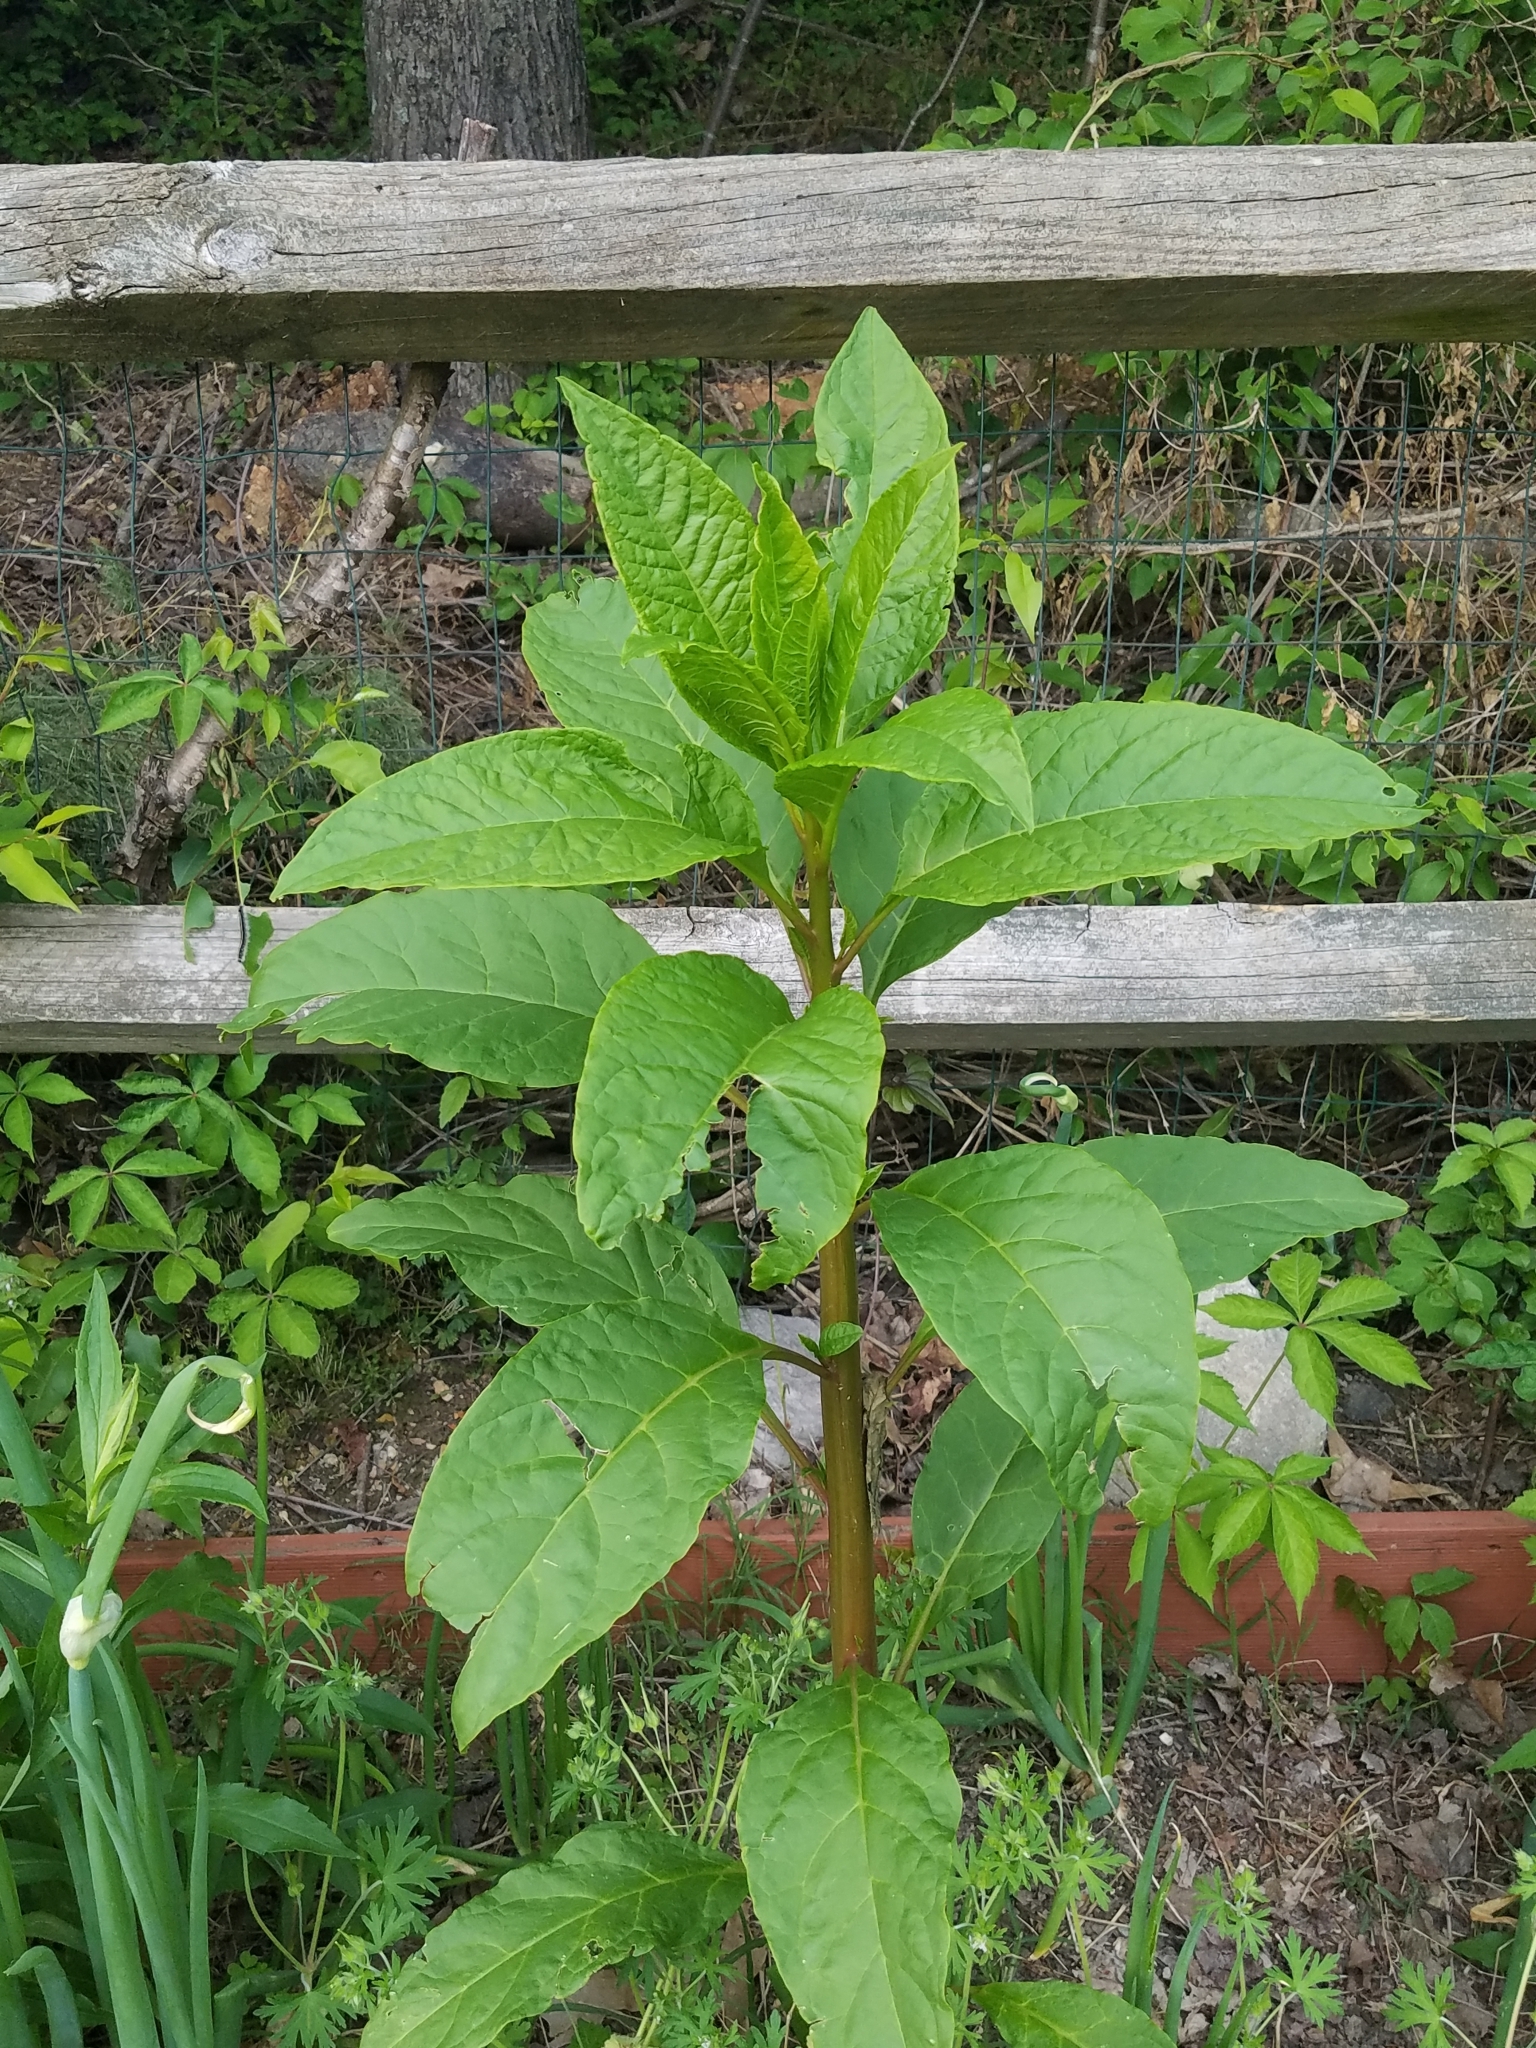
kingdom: Plantae
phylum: Tracheophyta
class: Magnoliopsida
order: Caryophyllales
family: Phytolaccaceae
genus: Phytolacca
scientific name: Phytolacca americana
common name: American pokeweed
